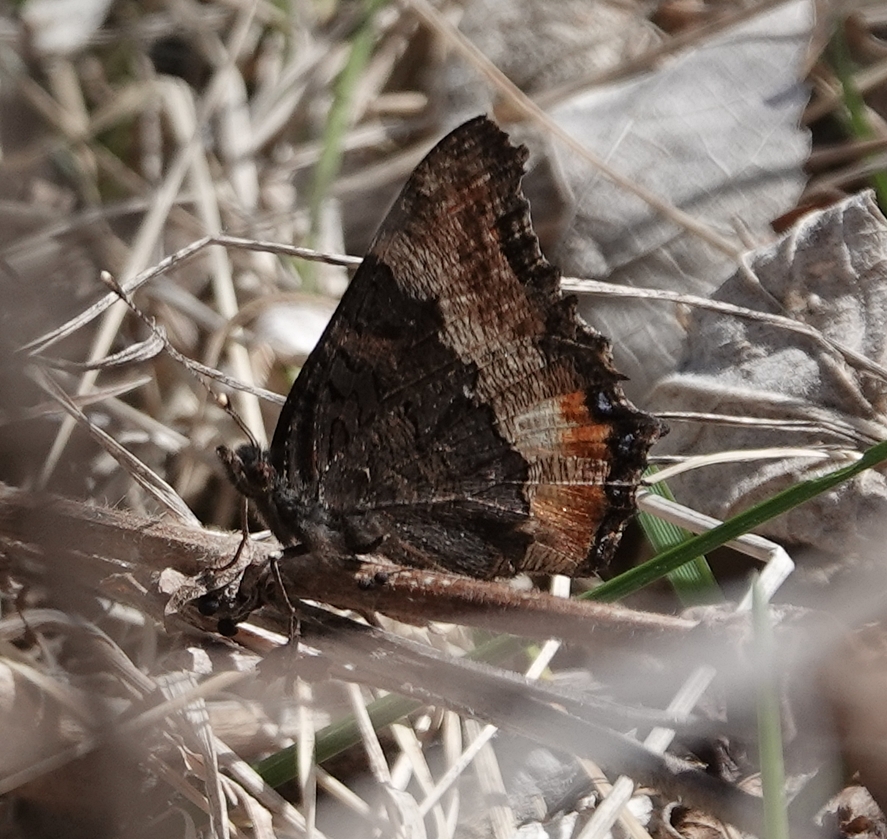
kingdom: Animalia
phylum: Arthropoda
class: Insecta
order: Lepidoptera
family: Nymphalidae
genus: Aglais
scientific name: Aglais milberti
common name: Milbert's tortoiseshell
